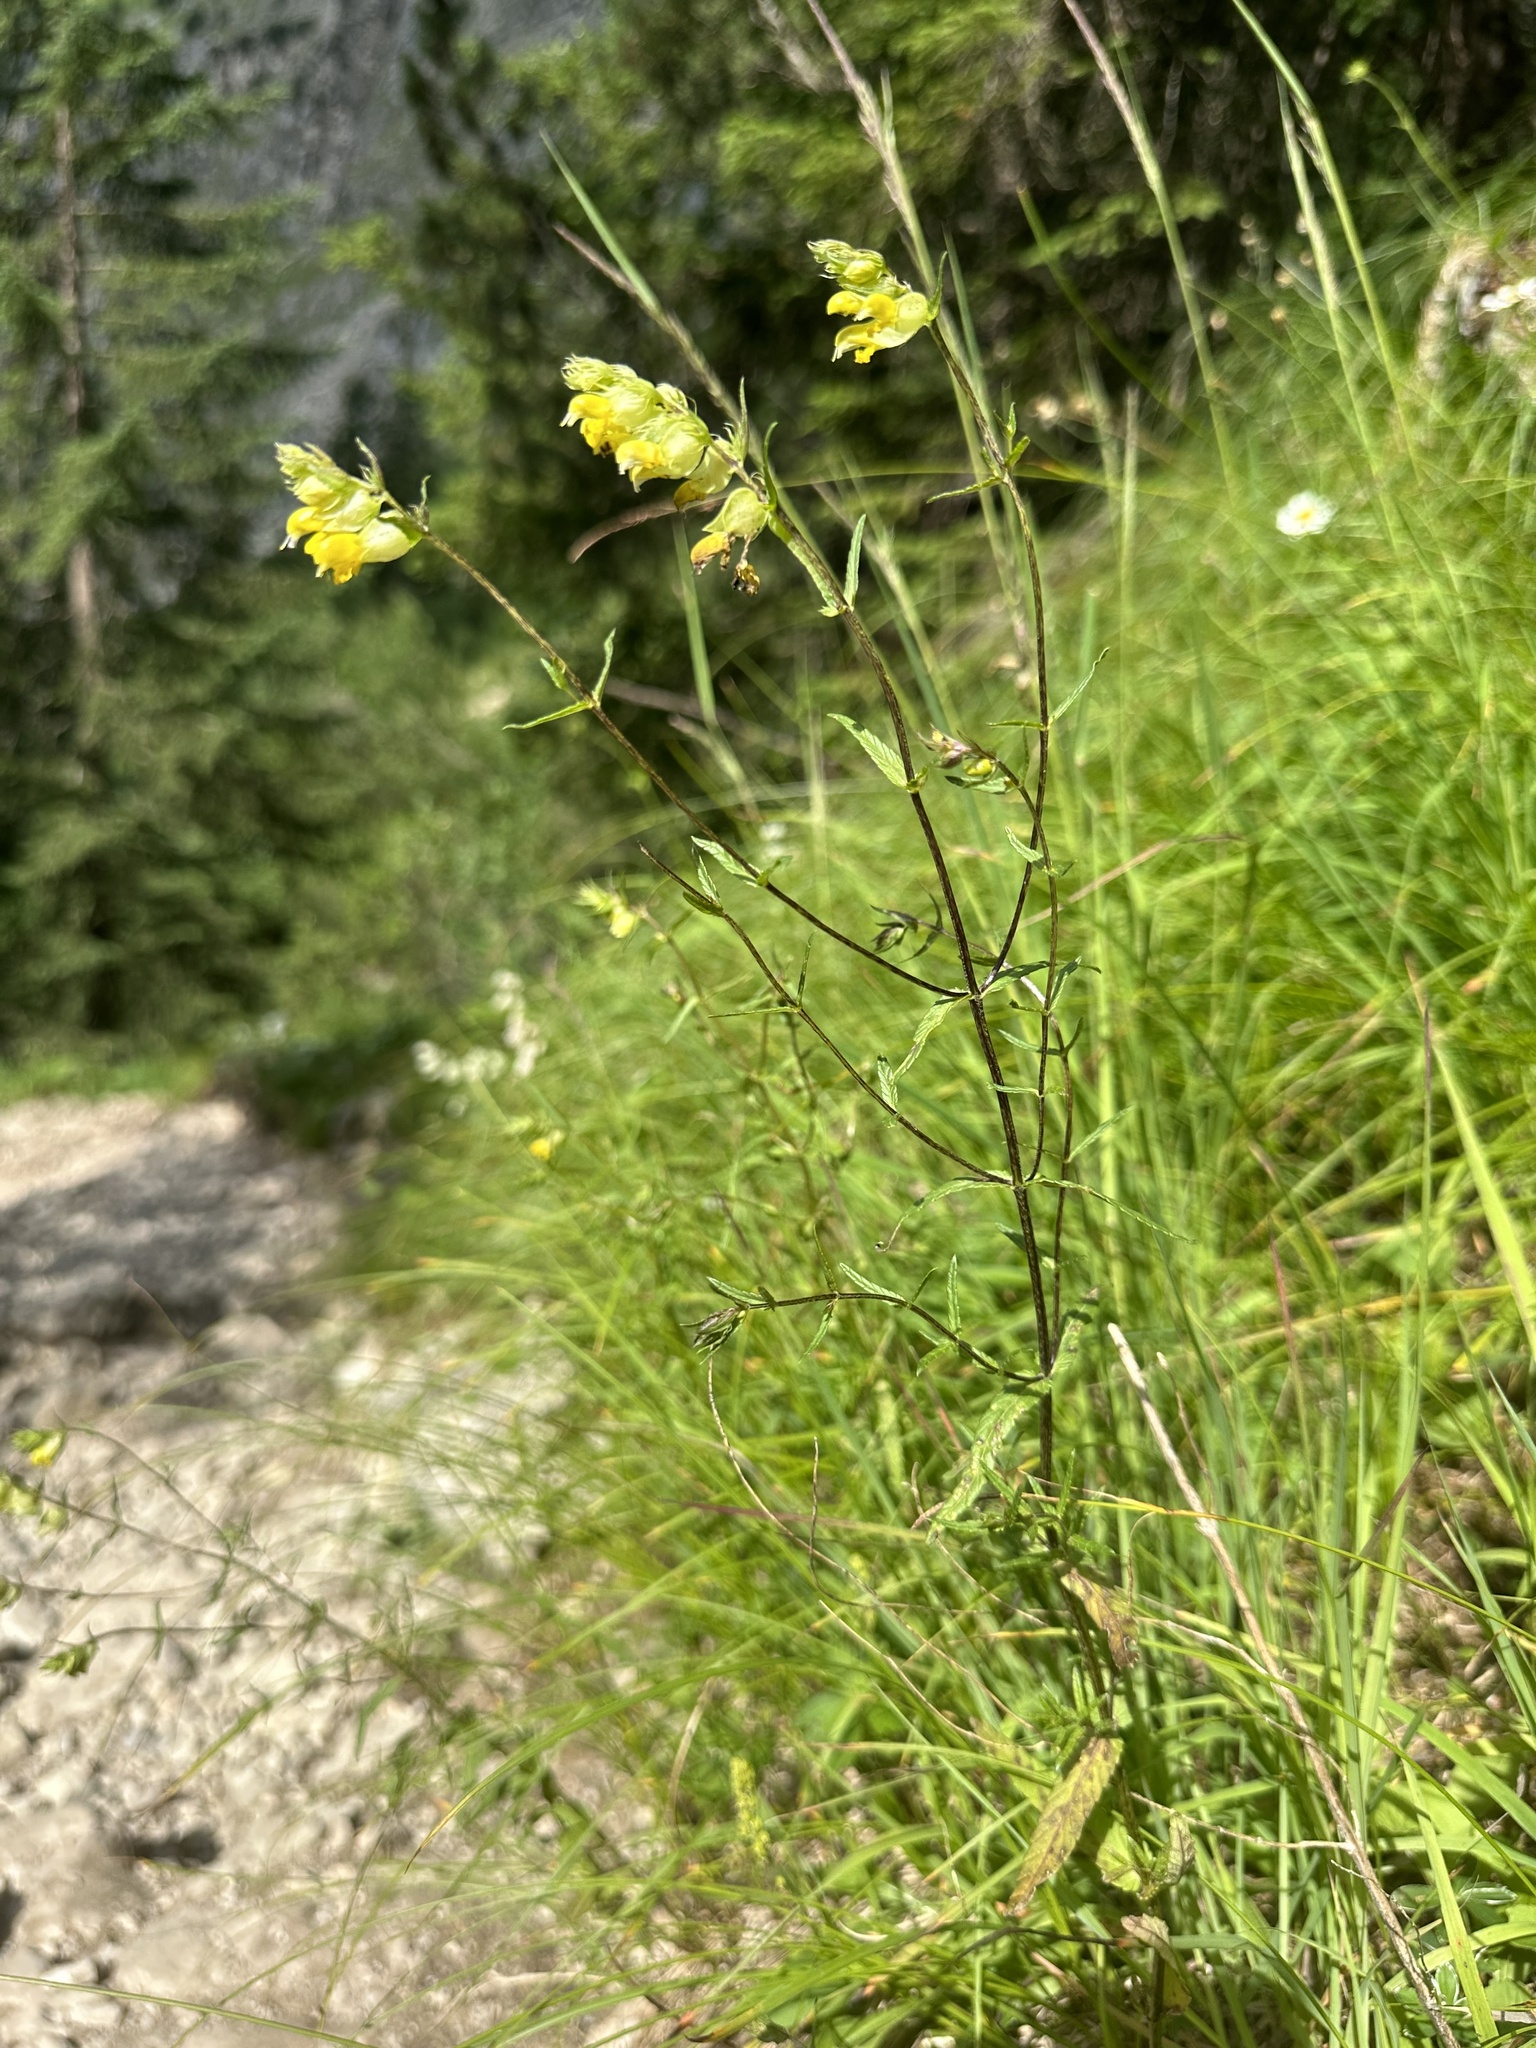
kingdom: Plantae
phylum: Tracheophyta
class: Magnoliopsida
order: Lamiales
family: Orobanchaceae
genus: Rhinanthus
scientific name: Rhinanthus minor
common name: Yellow-rattle
